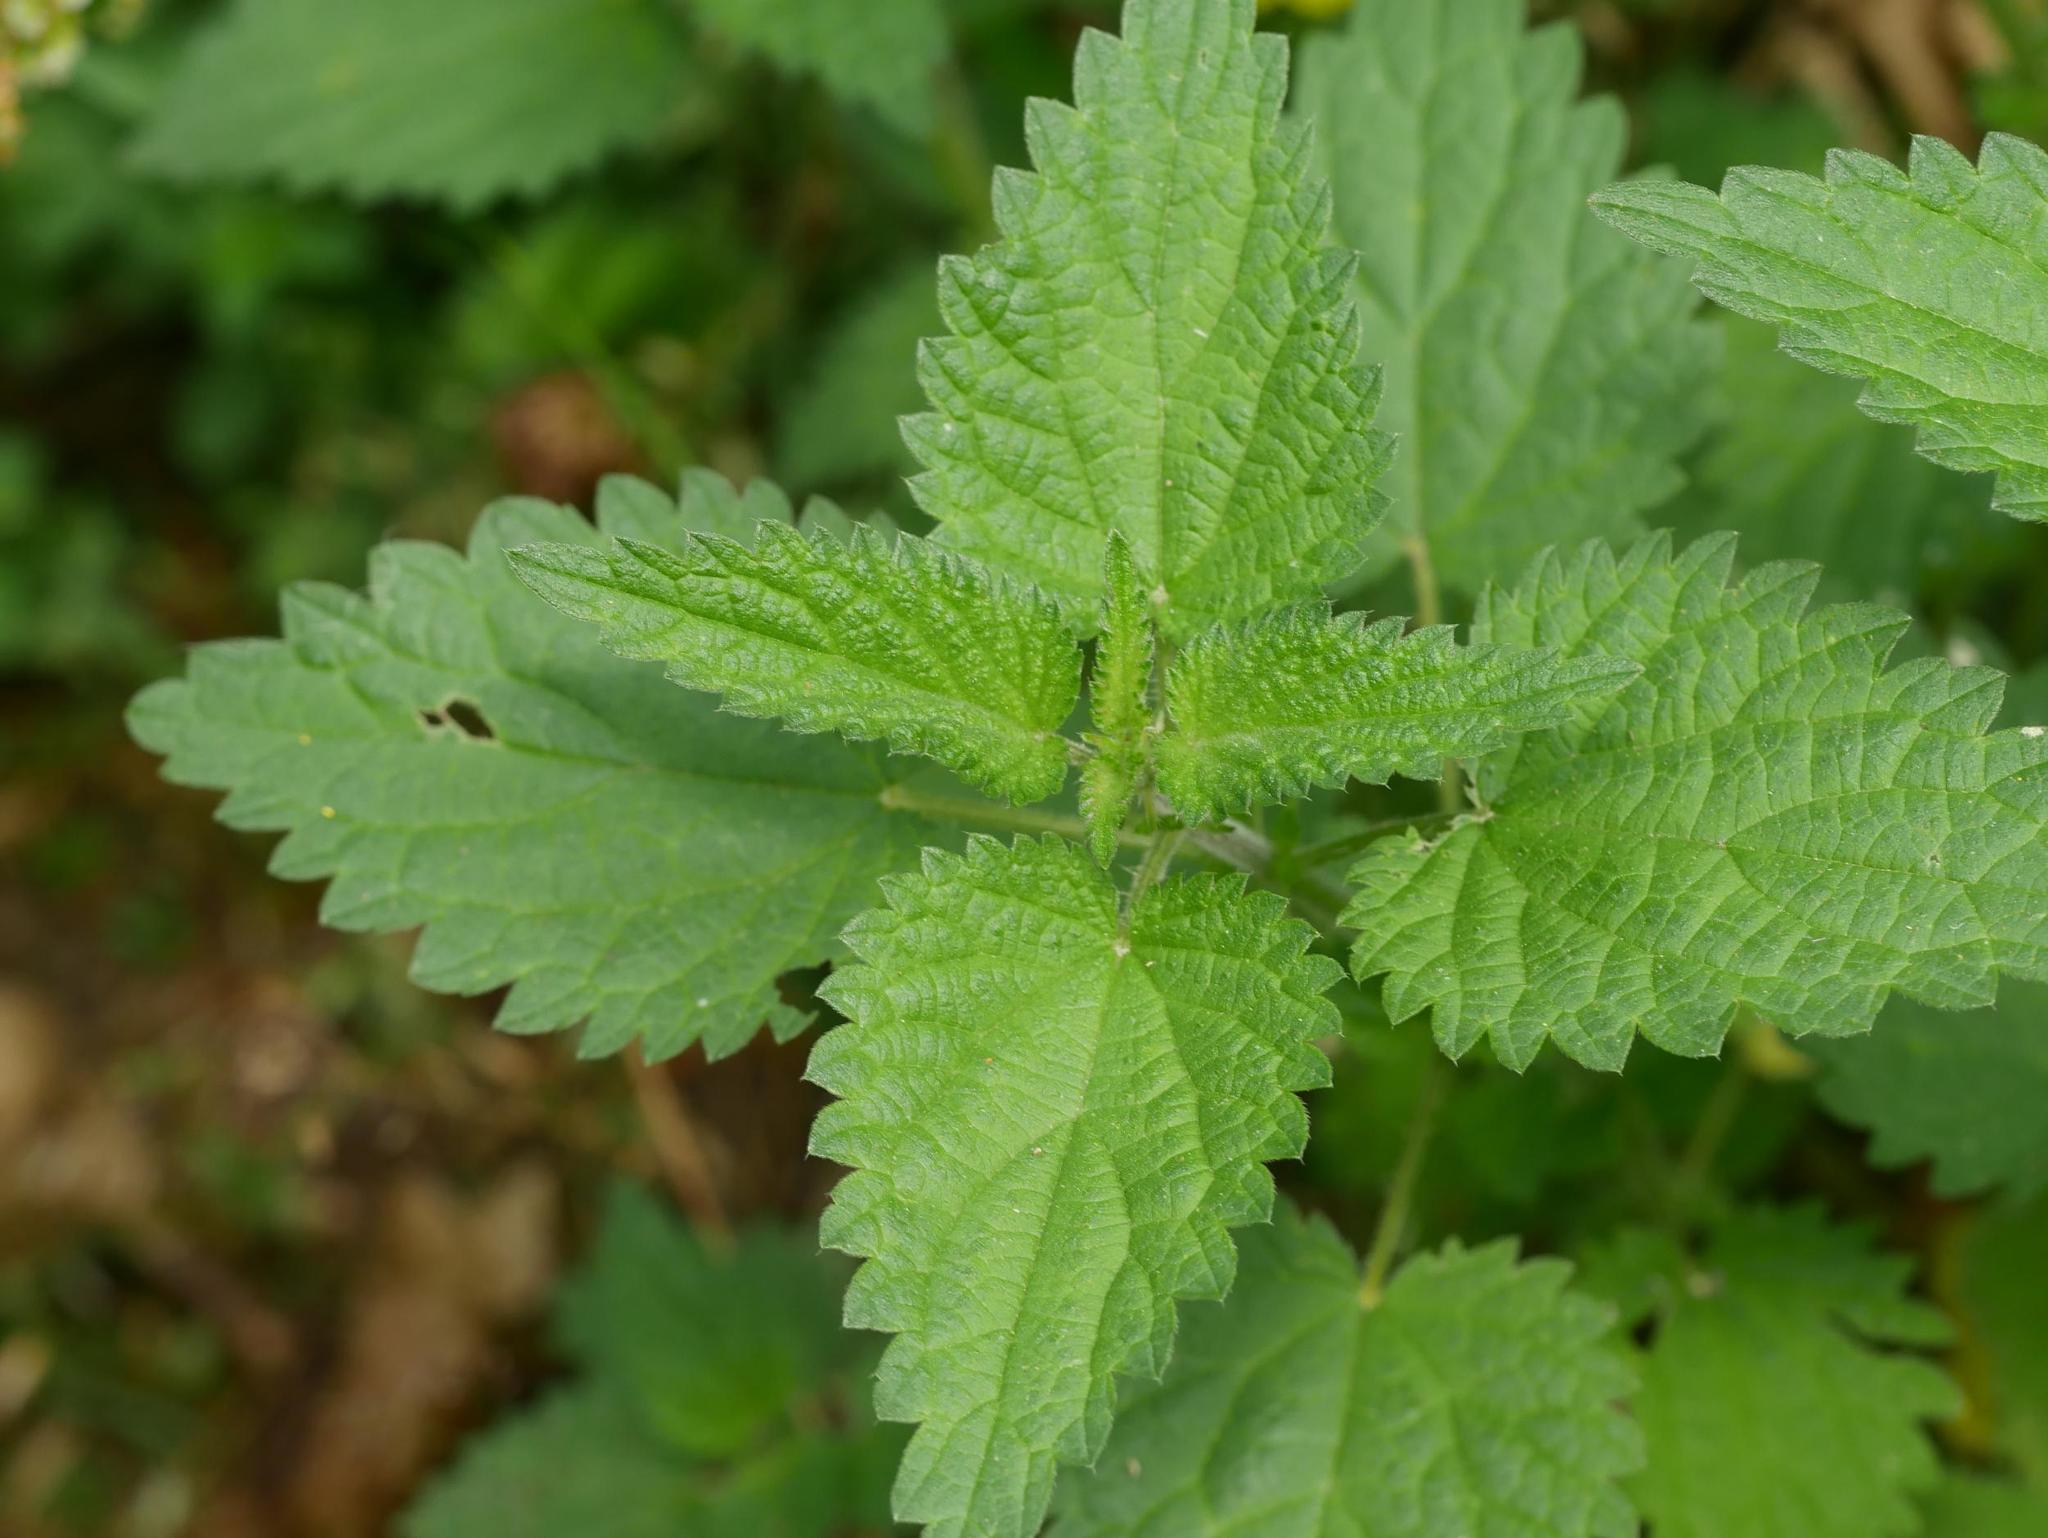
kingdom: Plantae
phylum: Tracheophyta
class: Magnoliopsida
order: Rosales
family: Urticaceae
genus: Urtica
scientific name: Urtica dioica
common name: Common nettle
